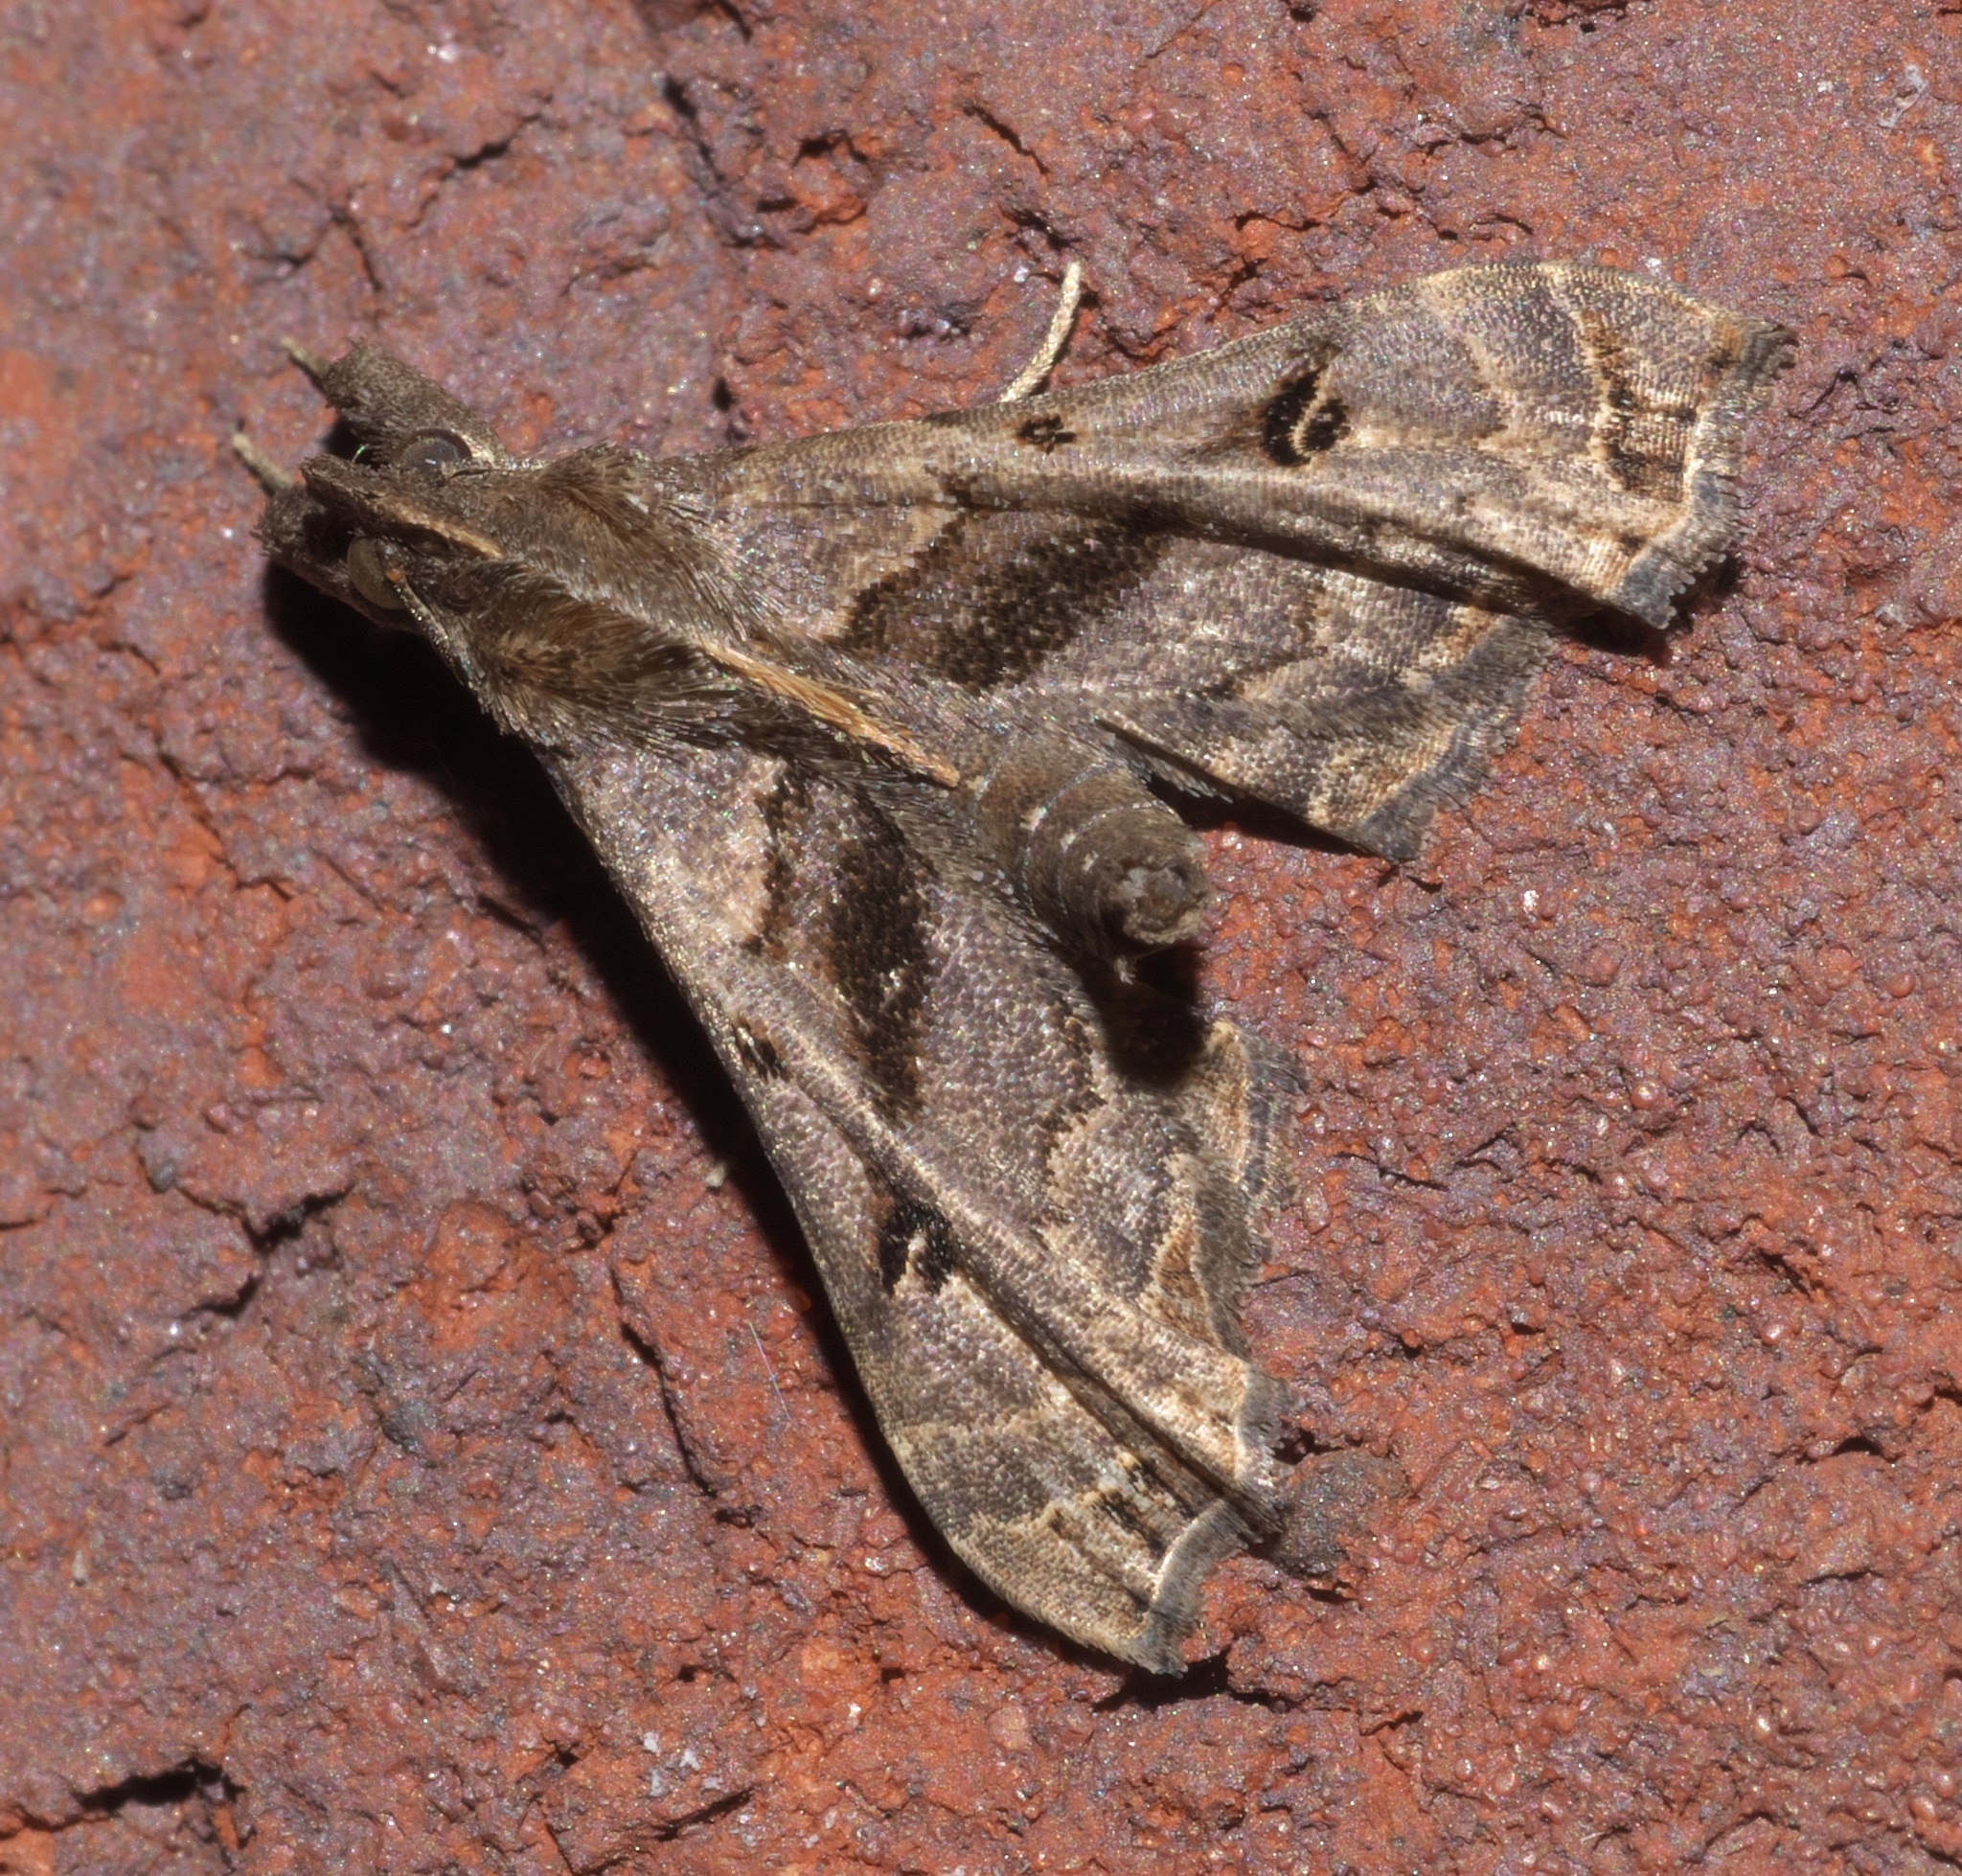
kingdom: Animalia
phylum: Arthropoda
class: Insecta
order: Lepidoptera
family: Erebidae
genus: Palthis
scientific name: Palthis asopialis
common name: Faint-spotted palthis moth
